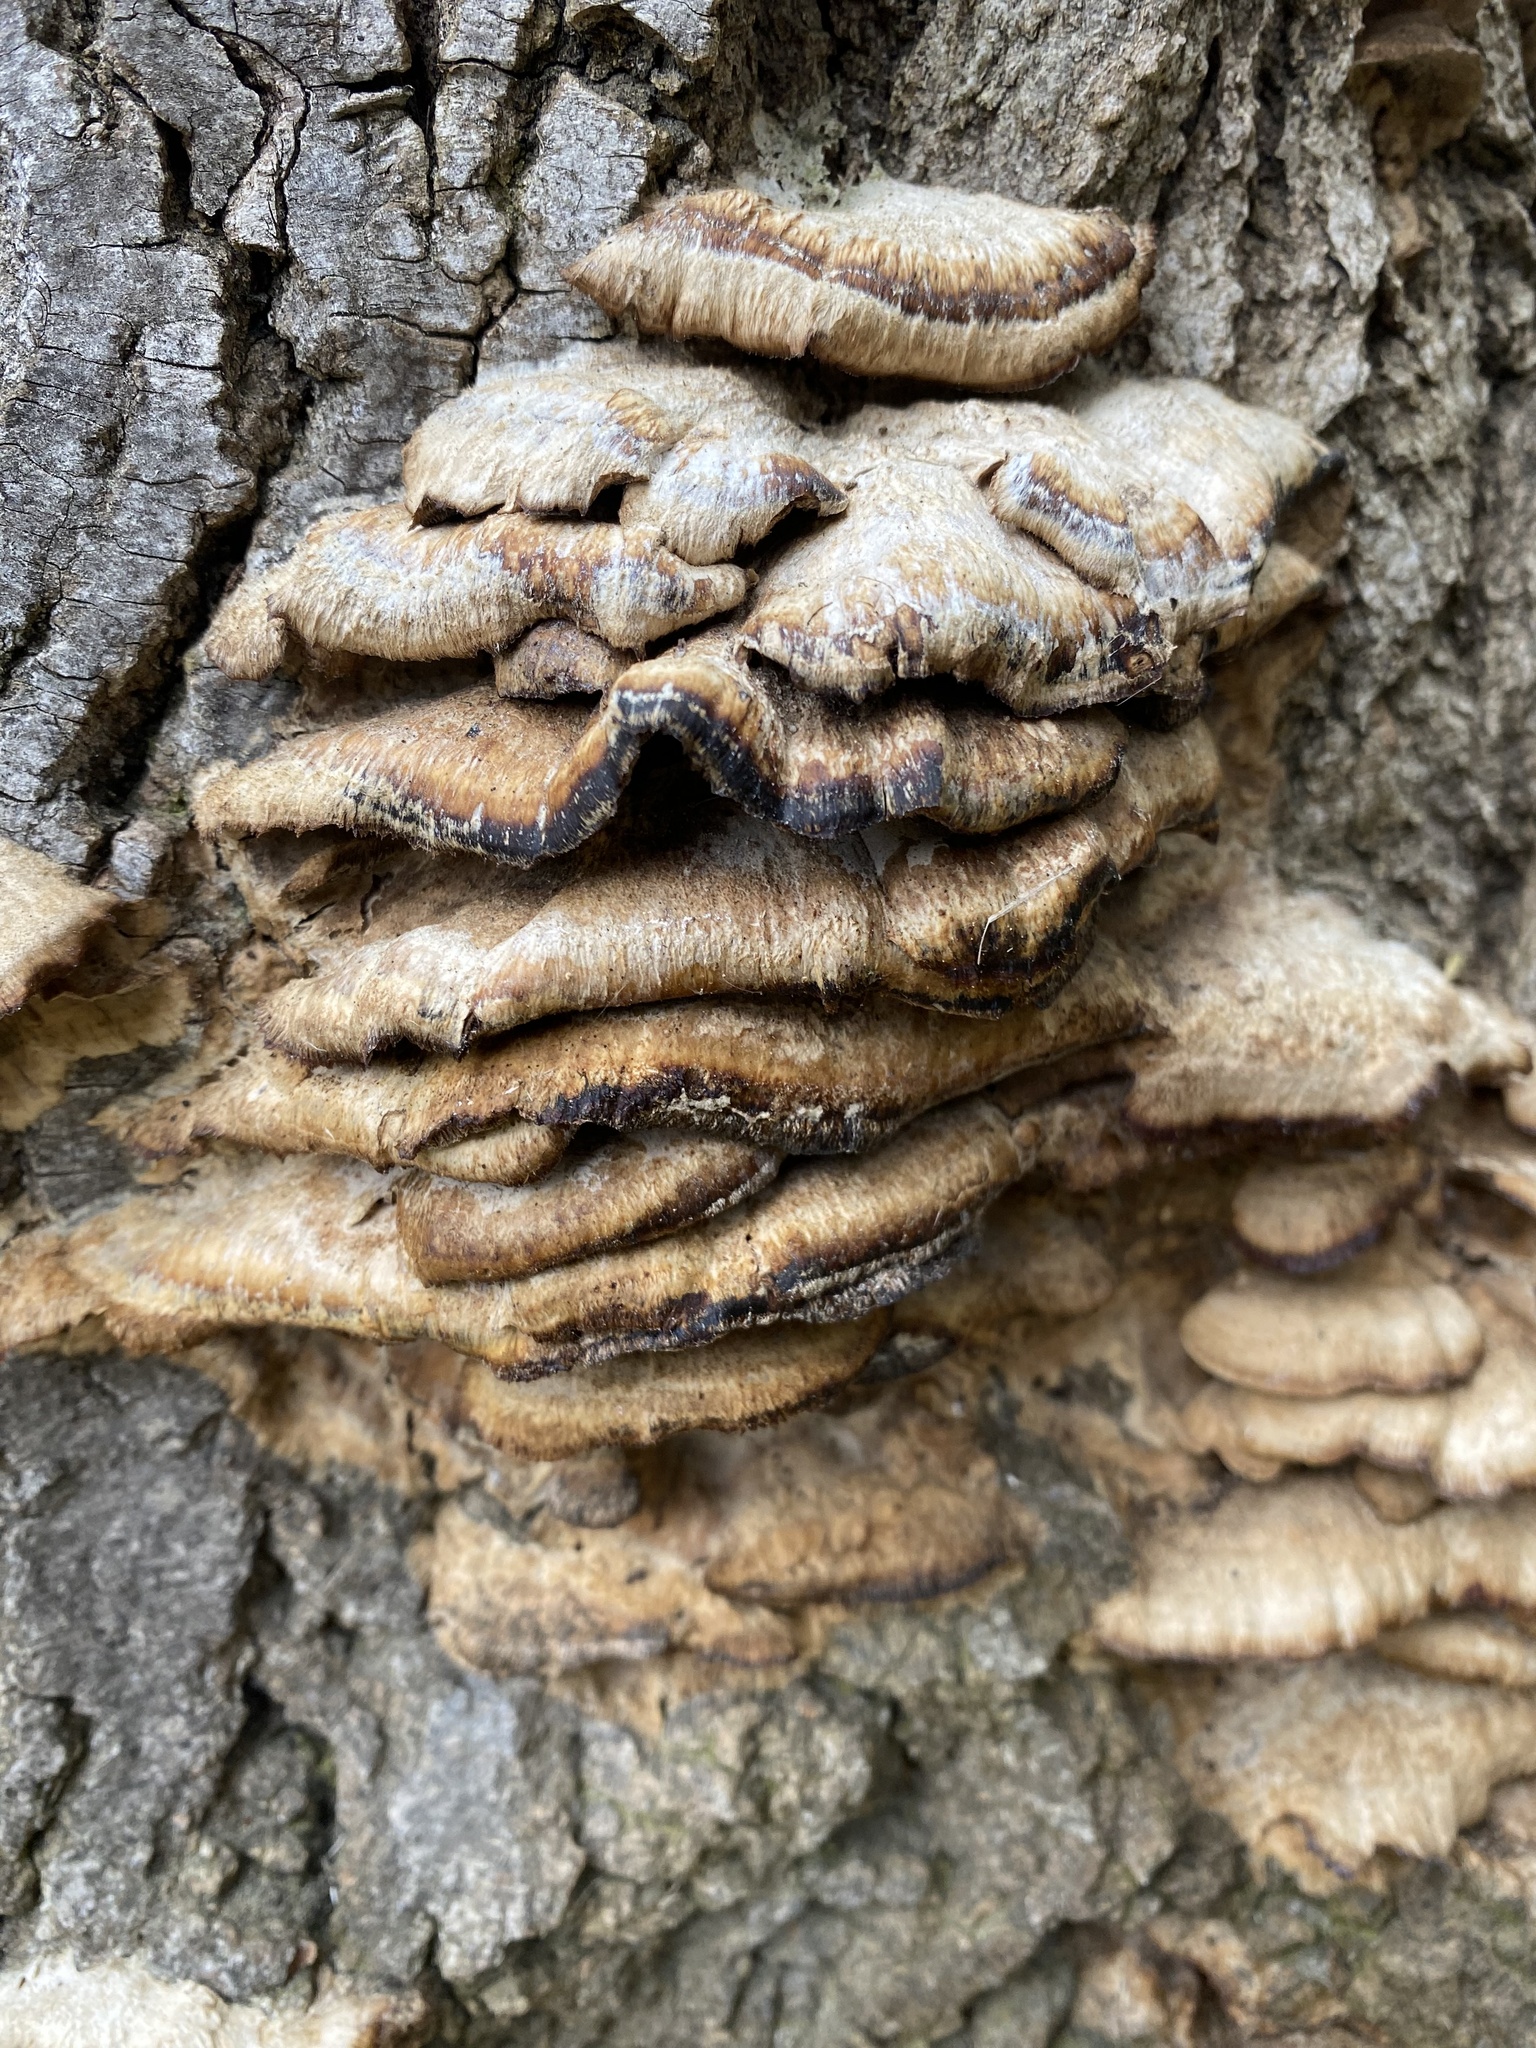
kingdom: Fungi
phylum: Basidiomycota
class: Agaricomycetes
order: Polyporales
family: Polyporaceae
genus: Coriolopsis
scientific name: Coriolopsis gallica
